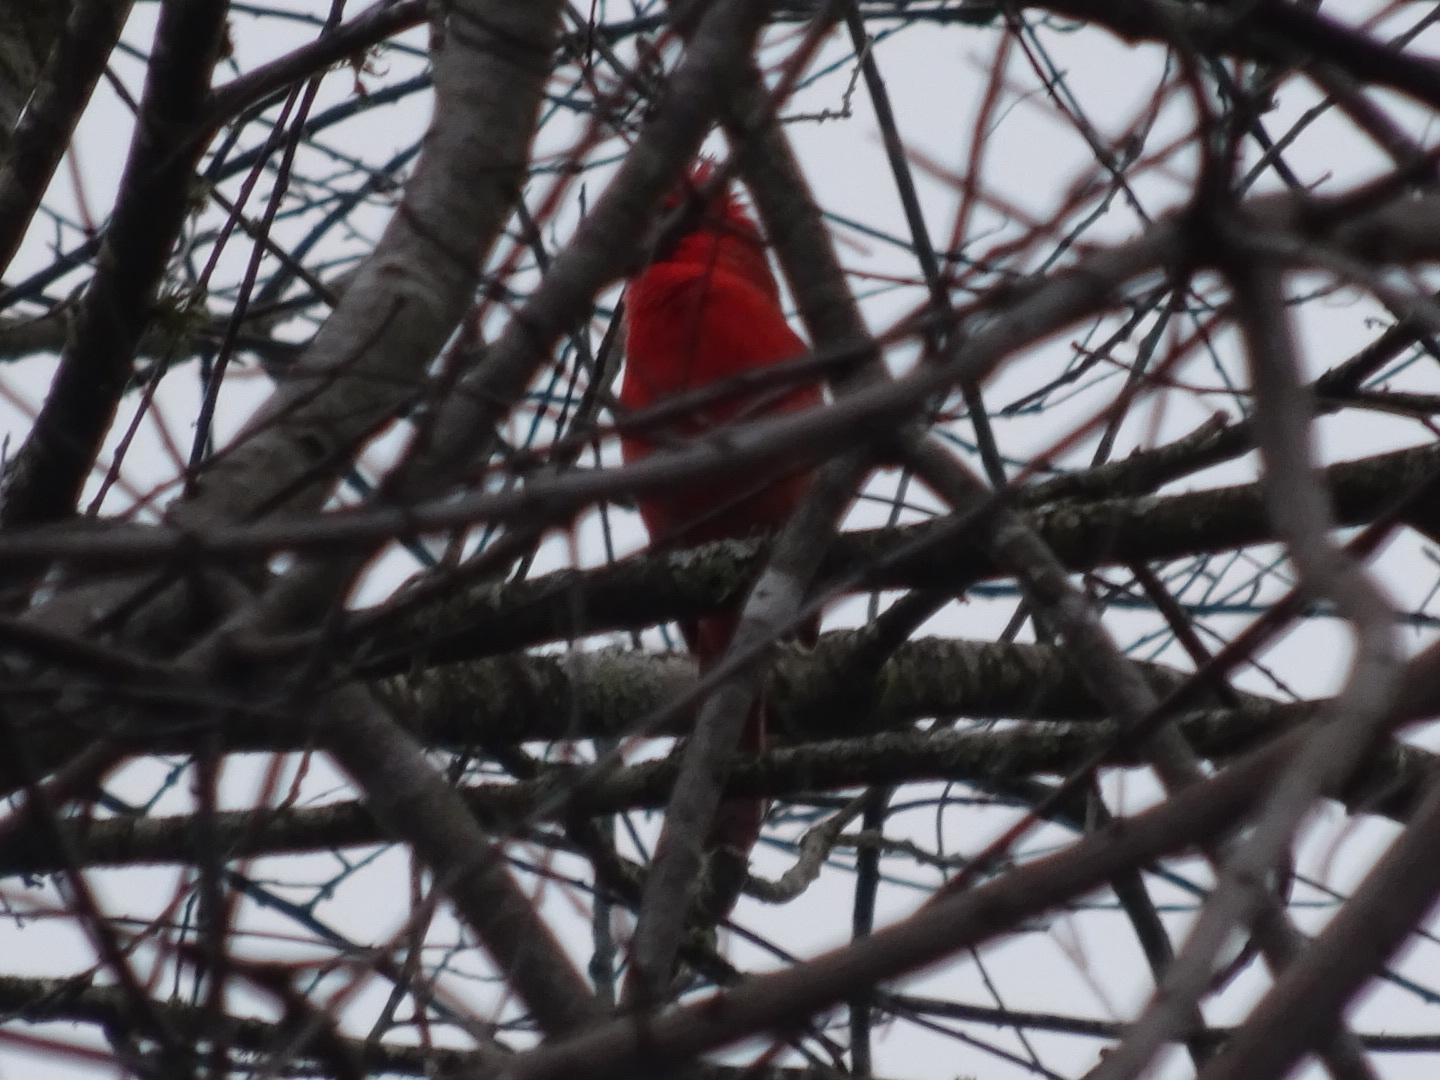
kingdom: Animalia
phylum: Chordata
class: Aves
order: Passeriformes
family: Cardinalidae
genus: Cardinalis
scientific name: Cardinalis cardinalis
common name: Northern cardinal
